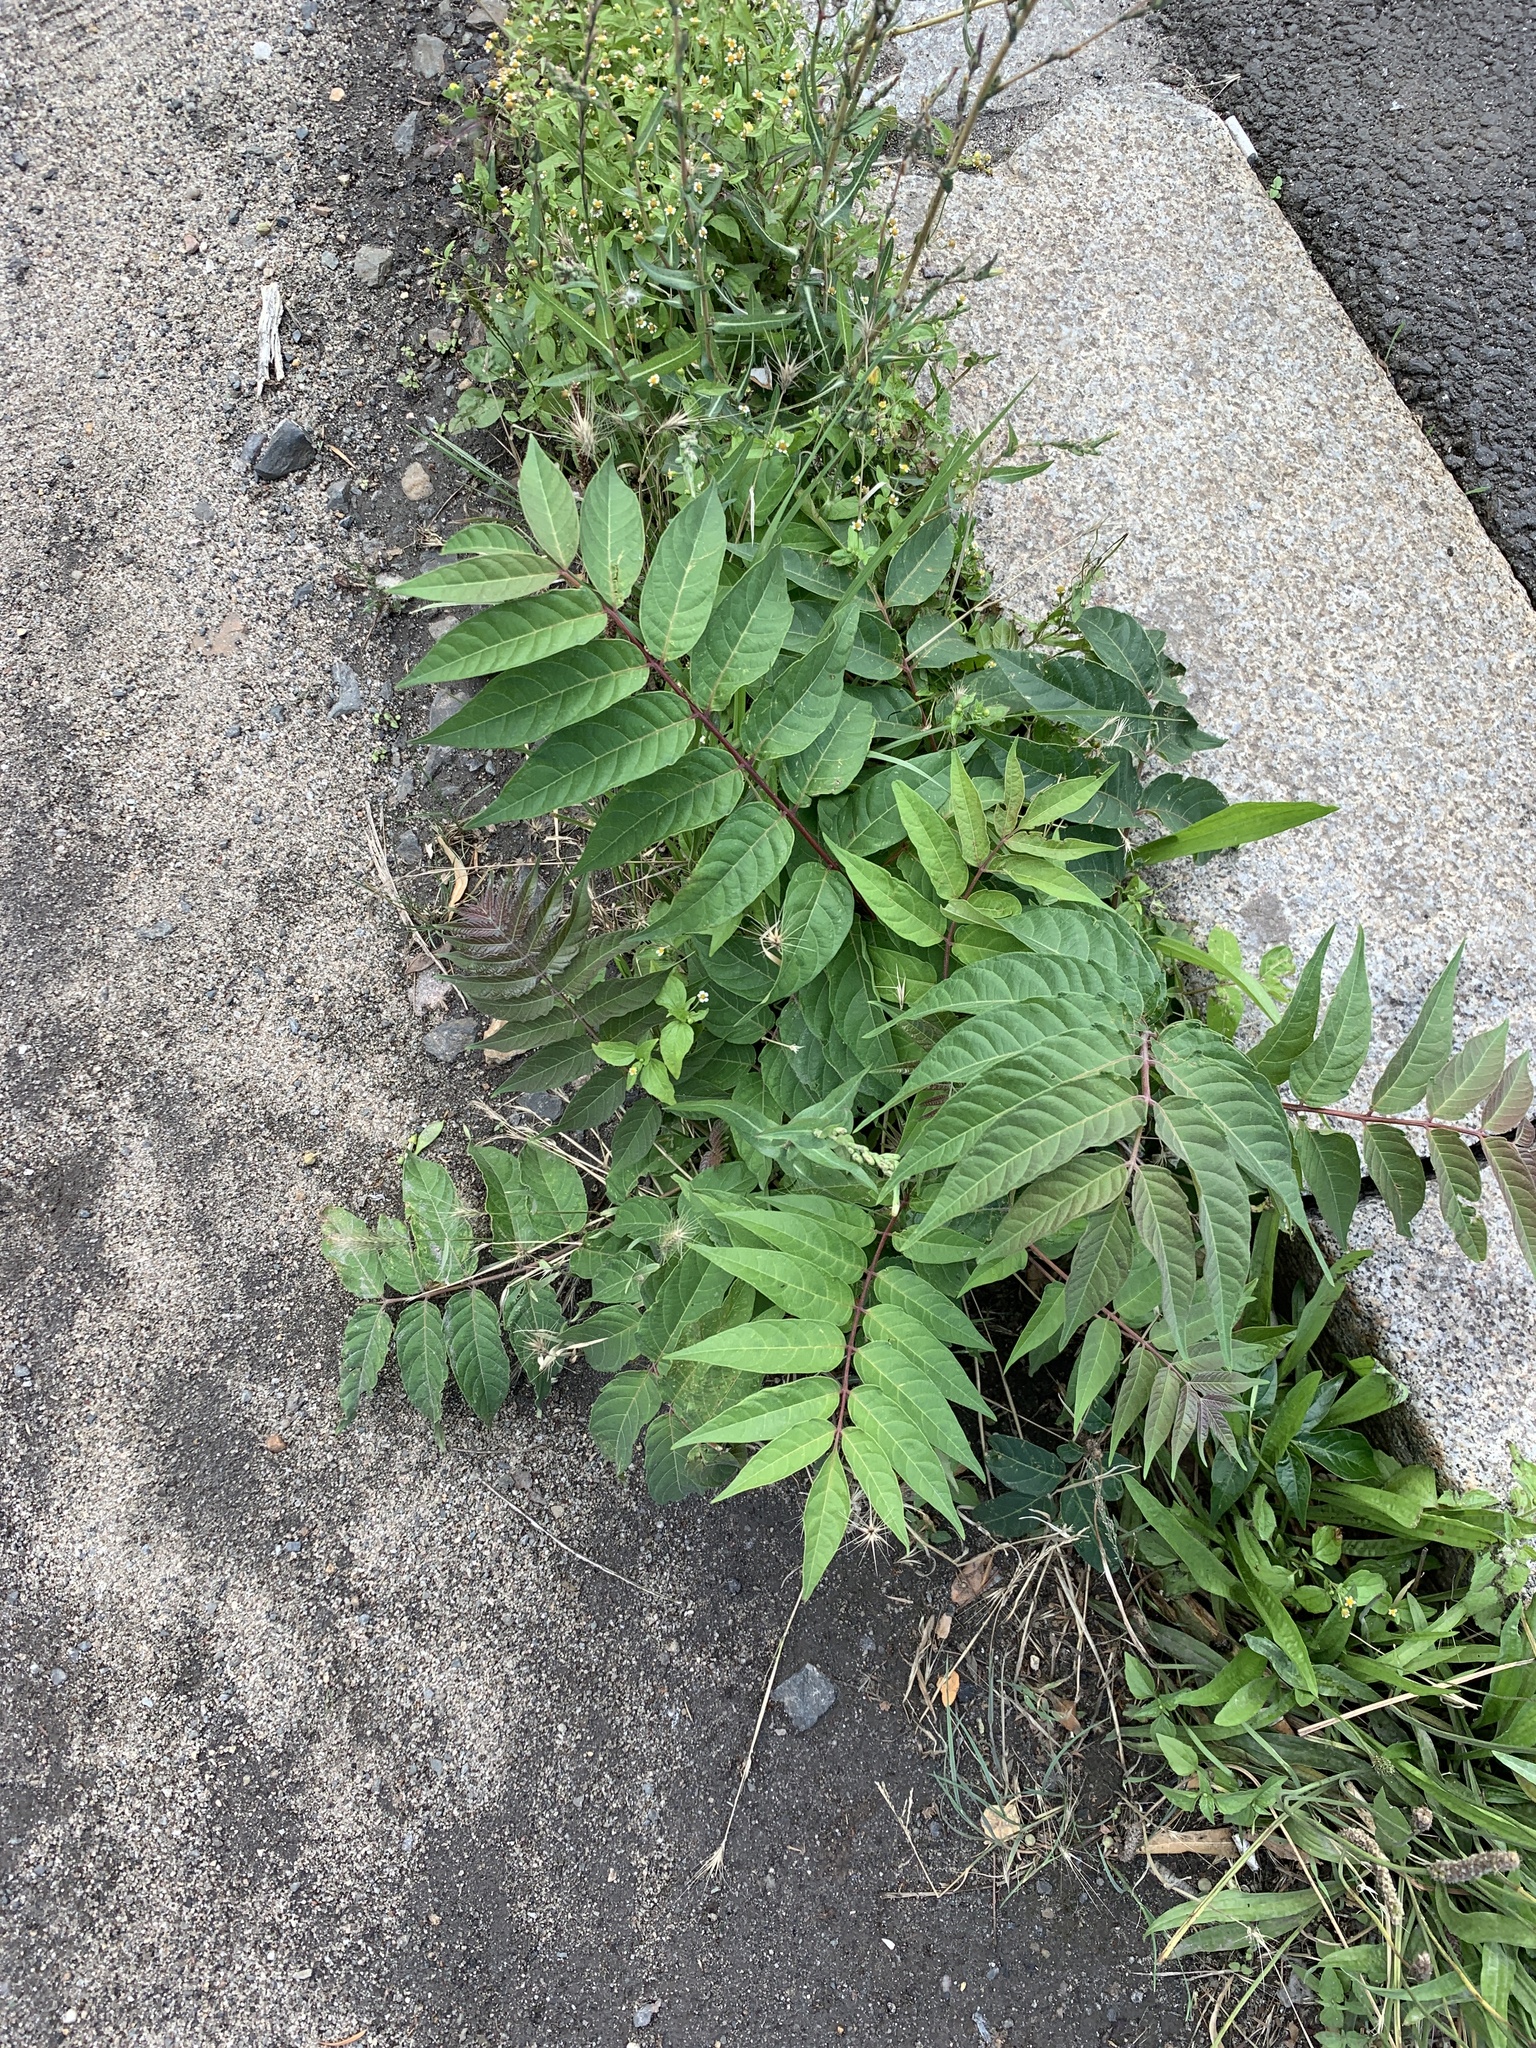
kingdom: Plantae
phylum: Tracheophyta
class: Magnoliopsida
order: Sapindales
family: Simaroubaceae
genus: Ailanthus
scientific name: Ailanthus altissima
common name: Tree-of-heaven
